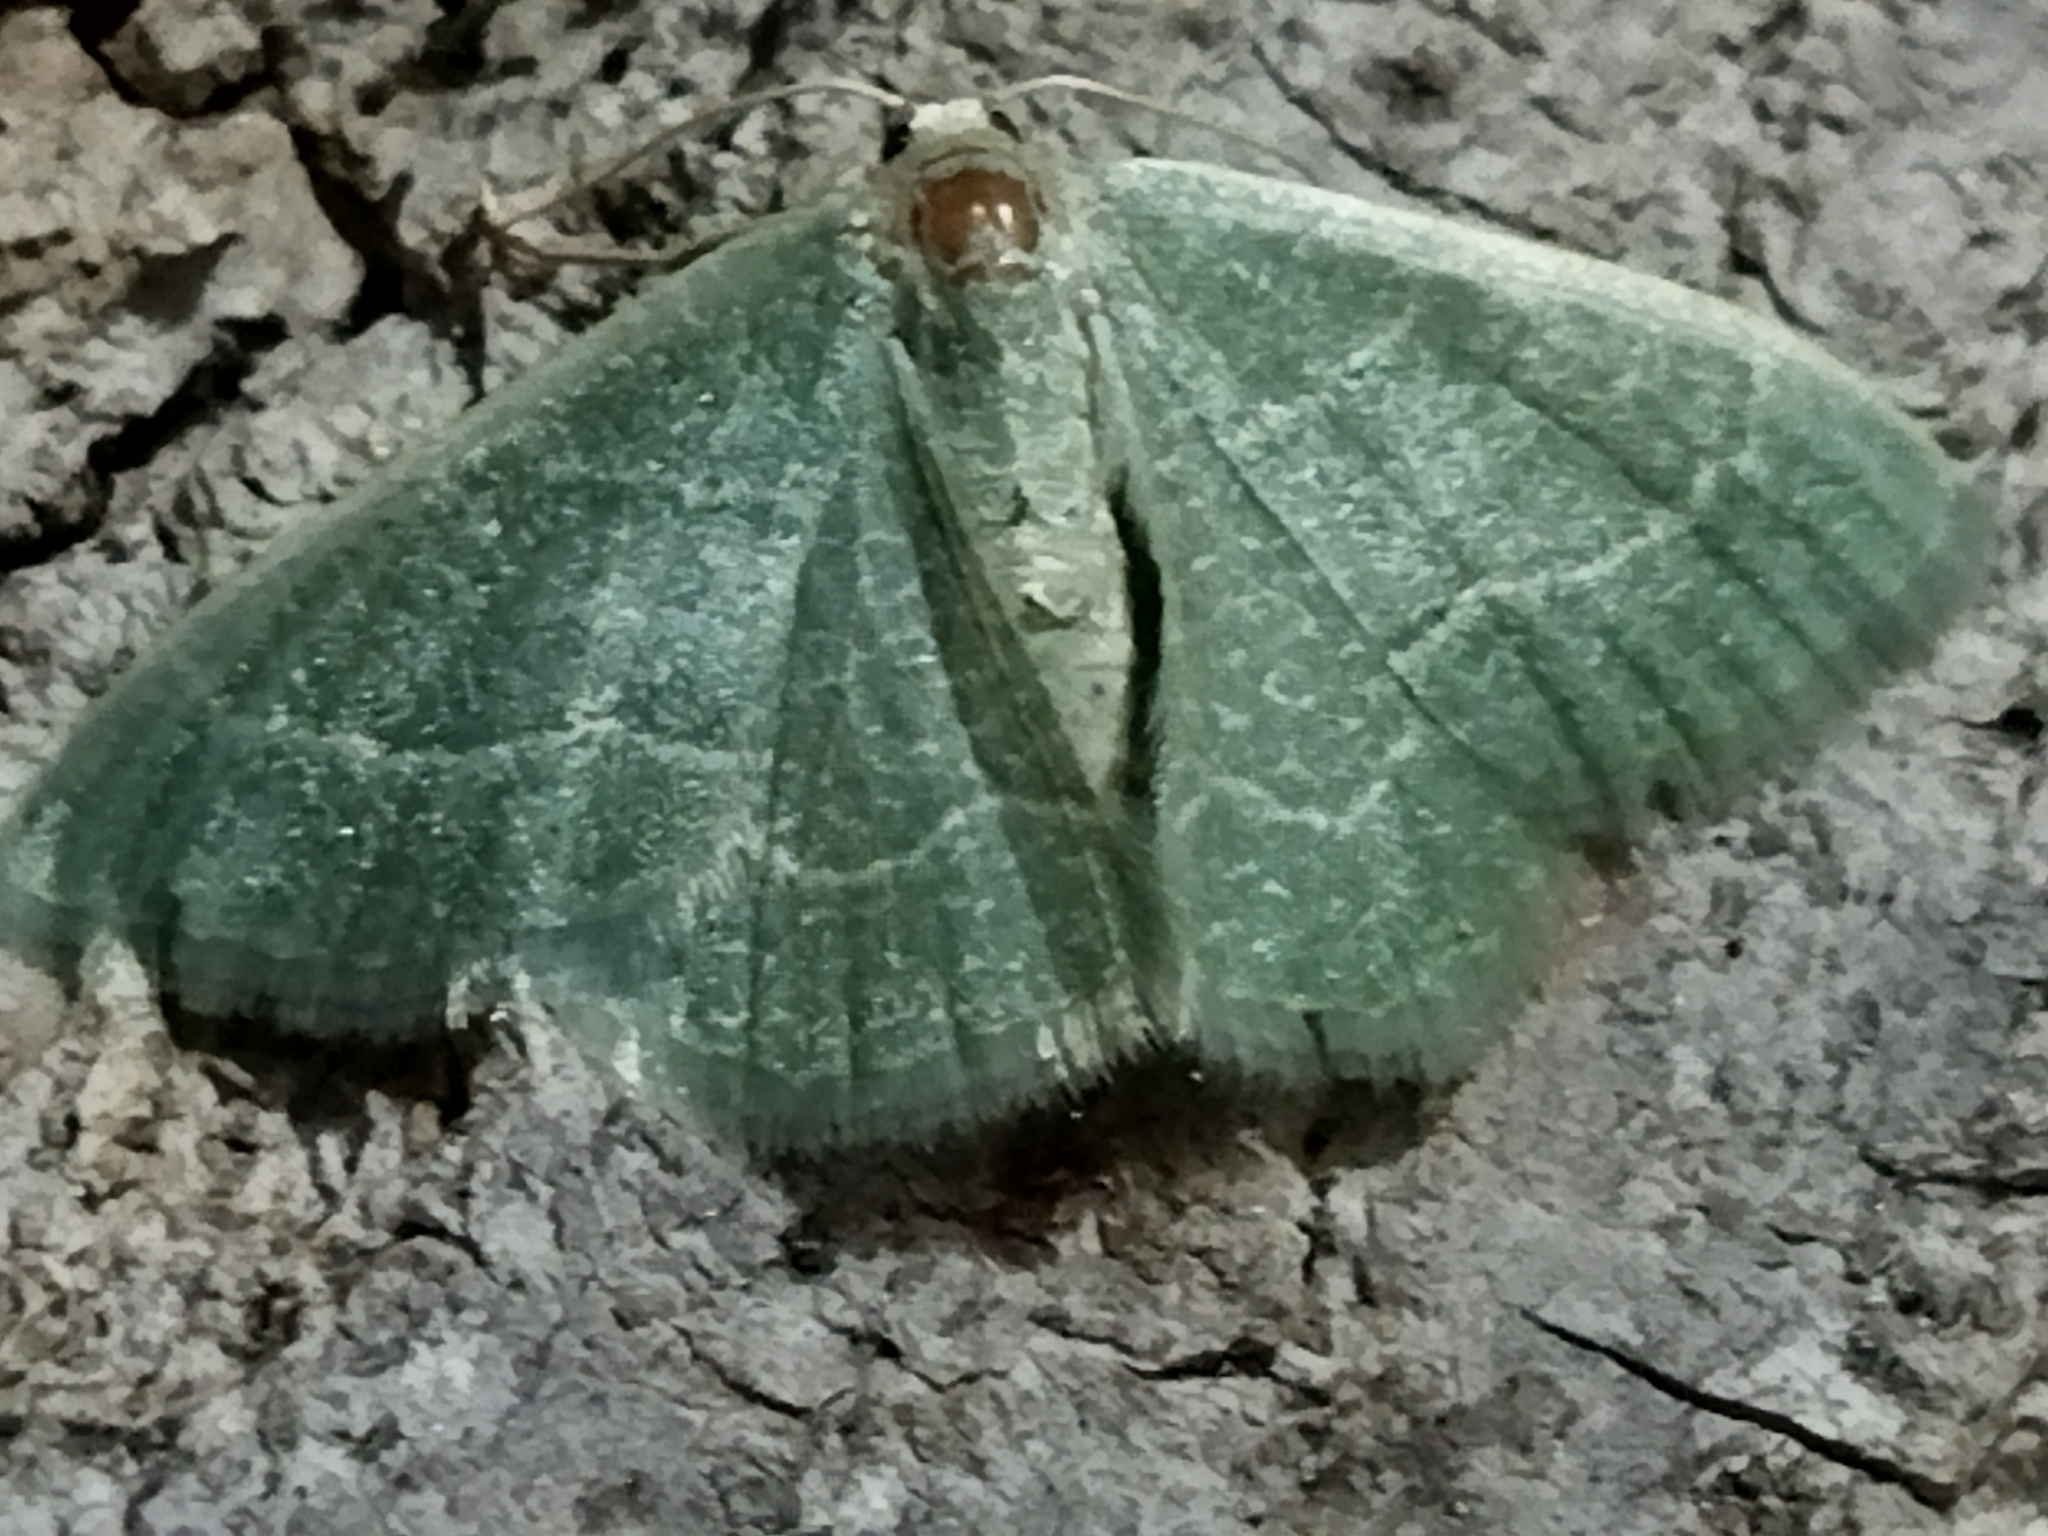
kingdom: Animalia
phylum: Arthropoda
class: Insecta
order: Lepidoptera
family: Geometridae
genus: Chlorissa
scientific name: Chlorissa etruscaria
